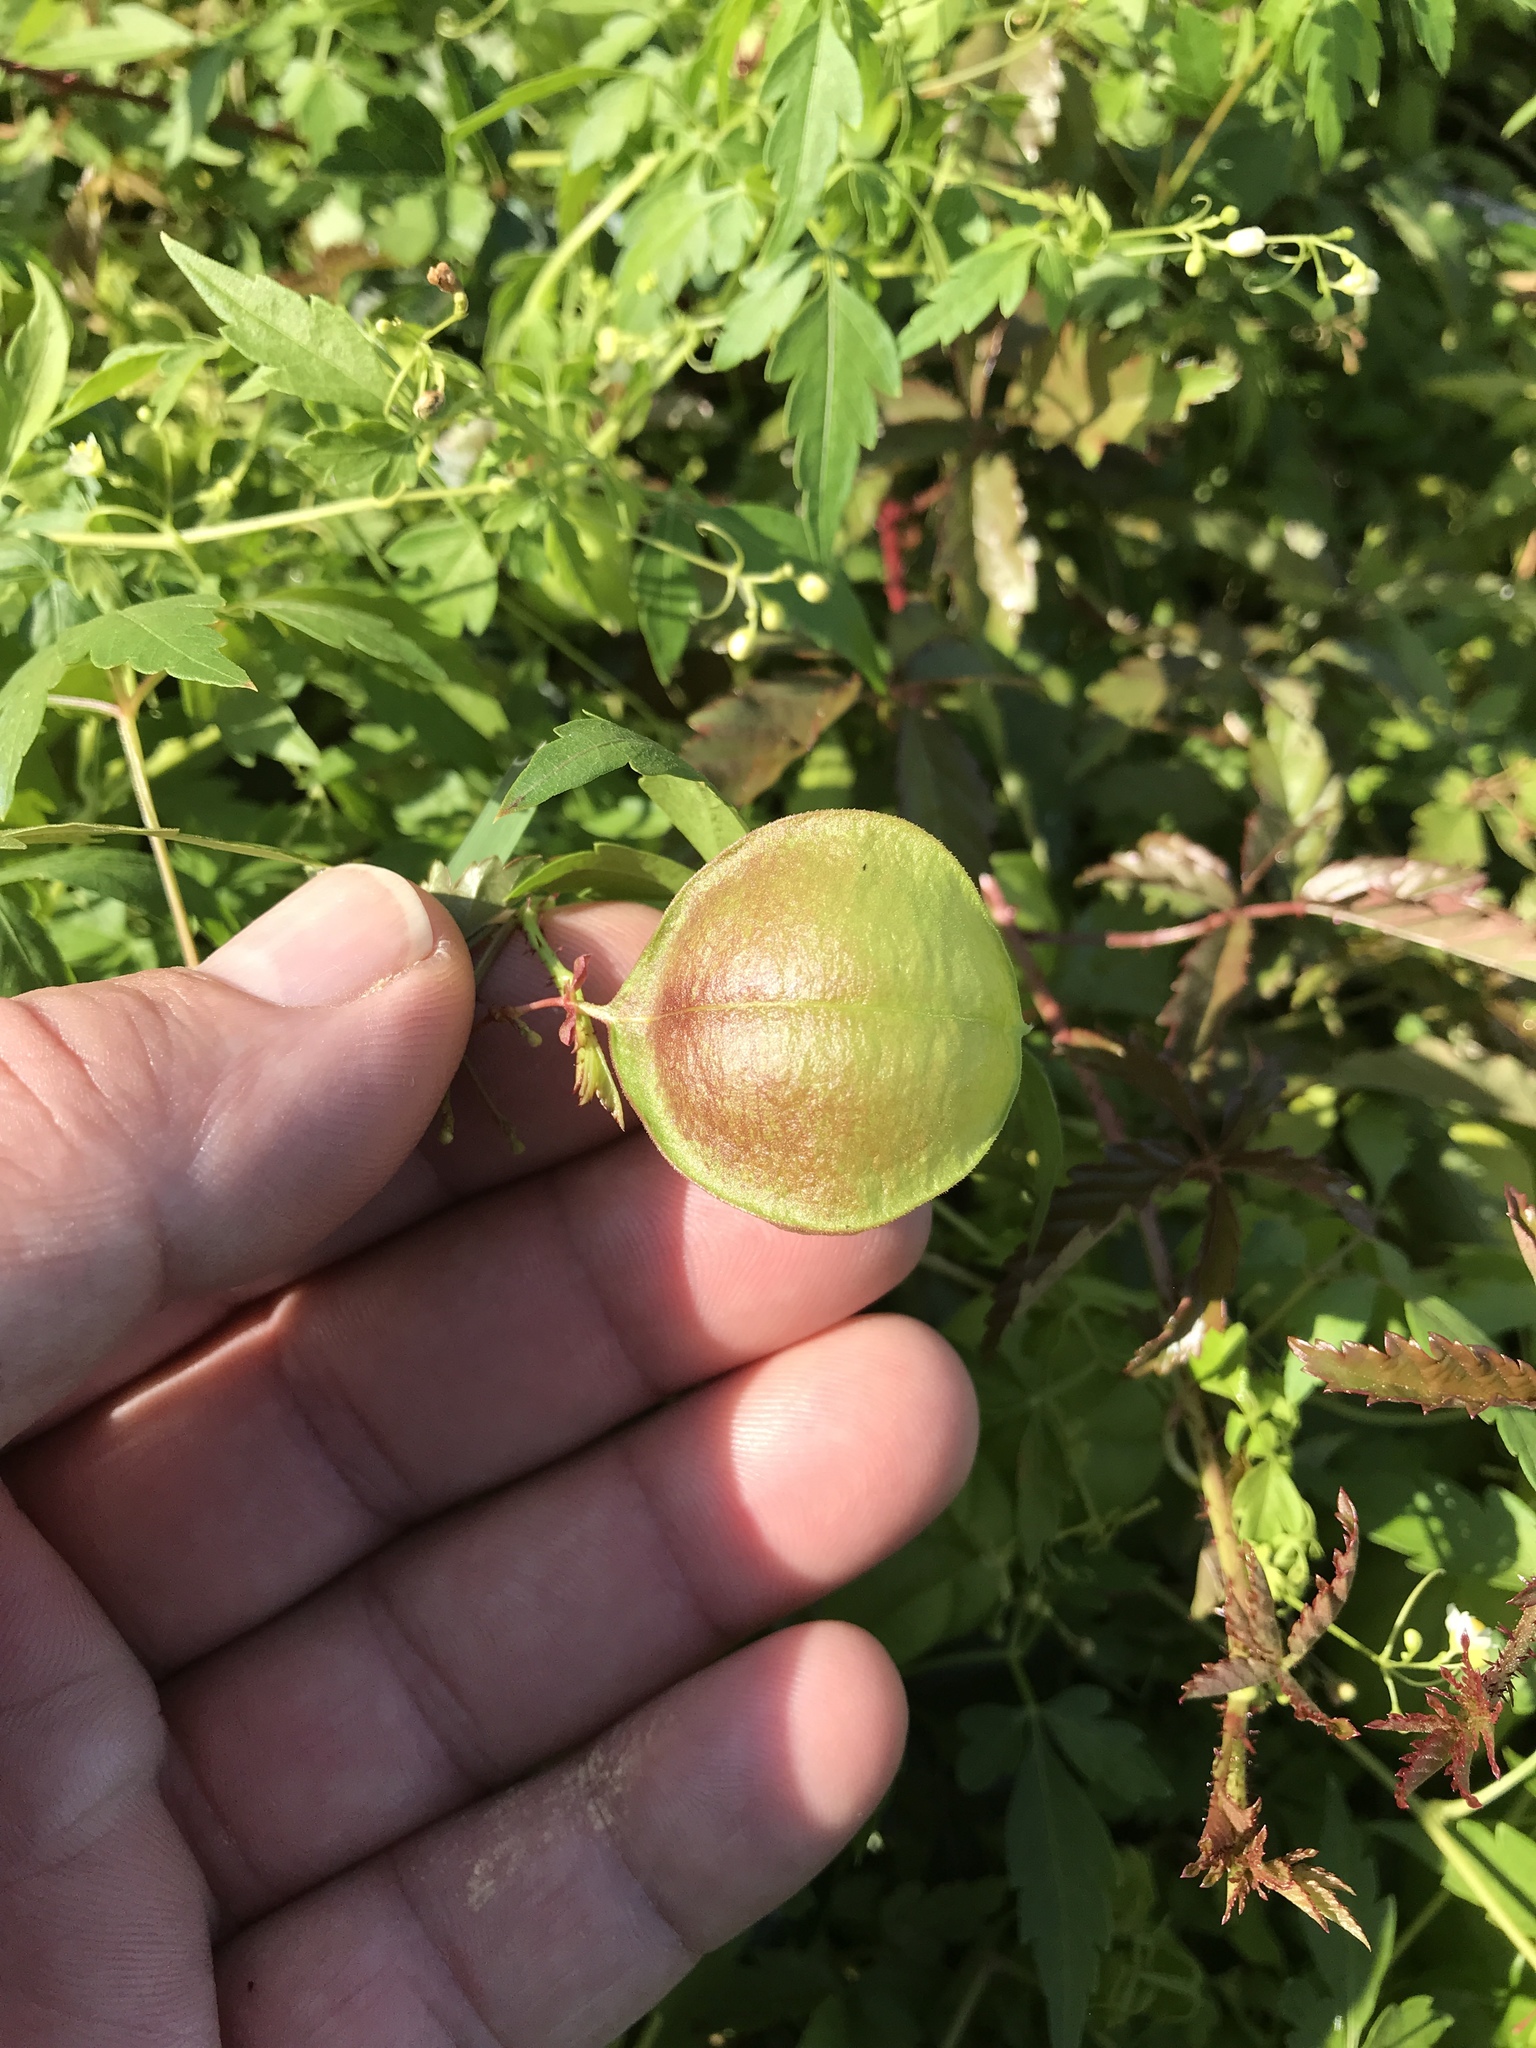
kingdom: Plantae
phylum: Tracheophyta
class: Magnoliopsida
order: Sapindales
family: Sapindaceae
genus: Cardiospermum
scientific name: Cardiospermum halicacabum
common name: Balloon vine
